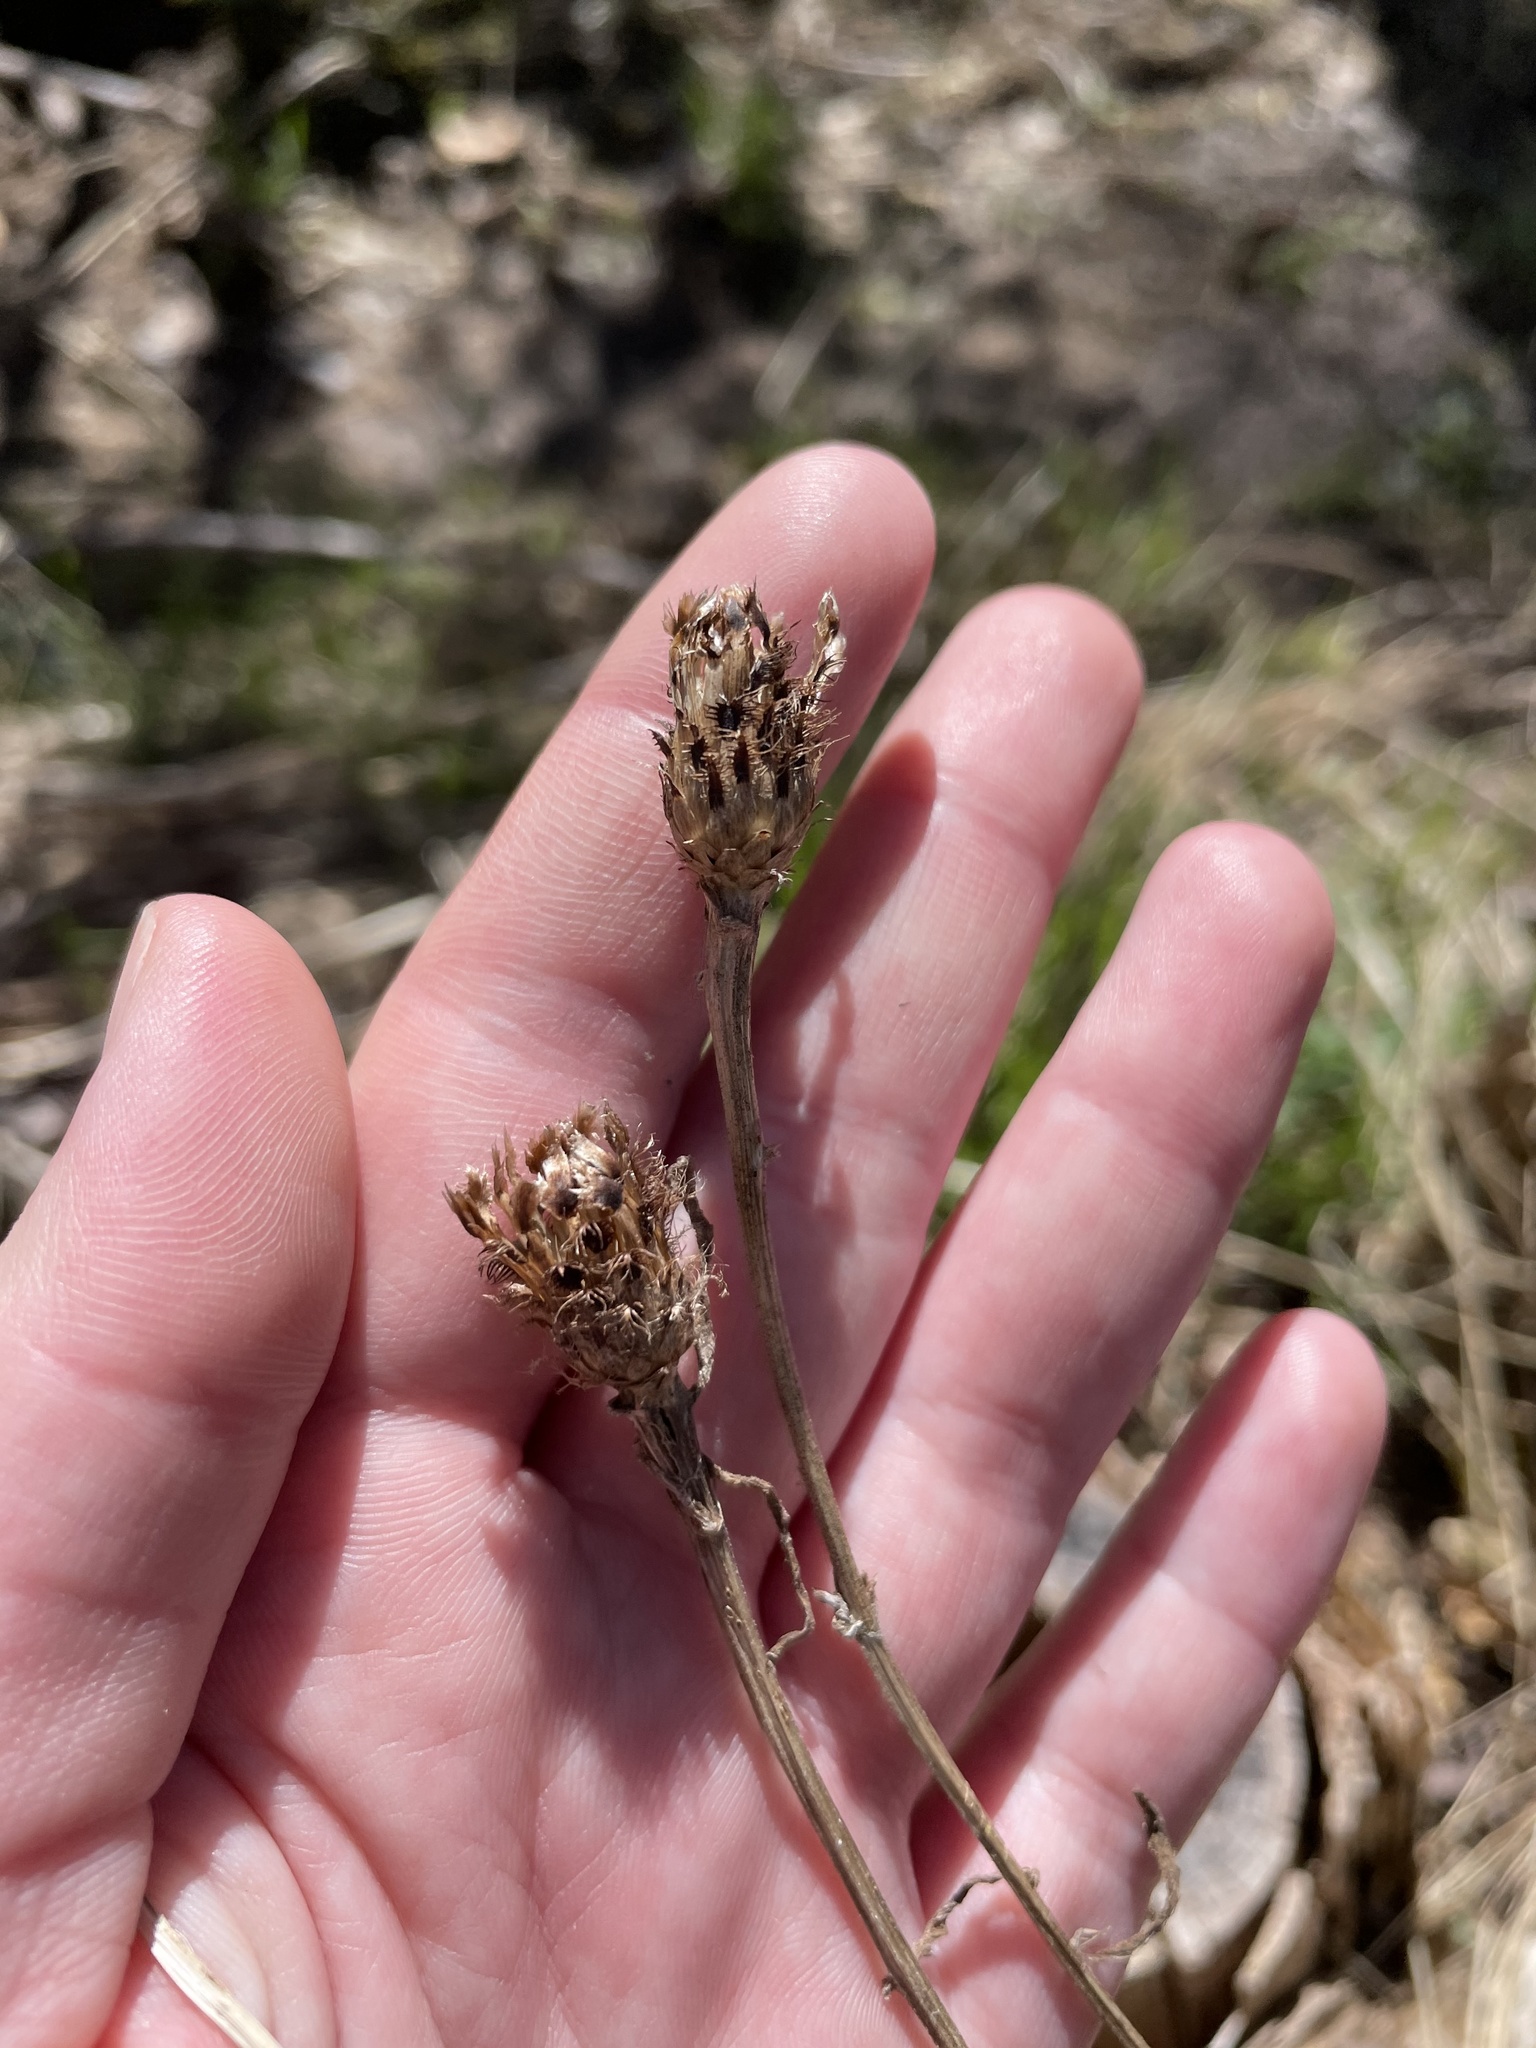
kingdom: Plantae
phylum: Tracheophyta
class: Magnoliopsida
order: Asterales
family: Asteraceae
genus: Centaurea
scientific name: Centaurea nigra
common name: Lesser knapweed
